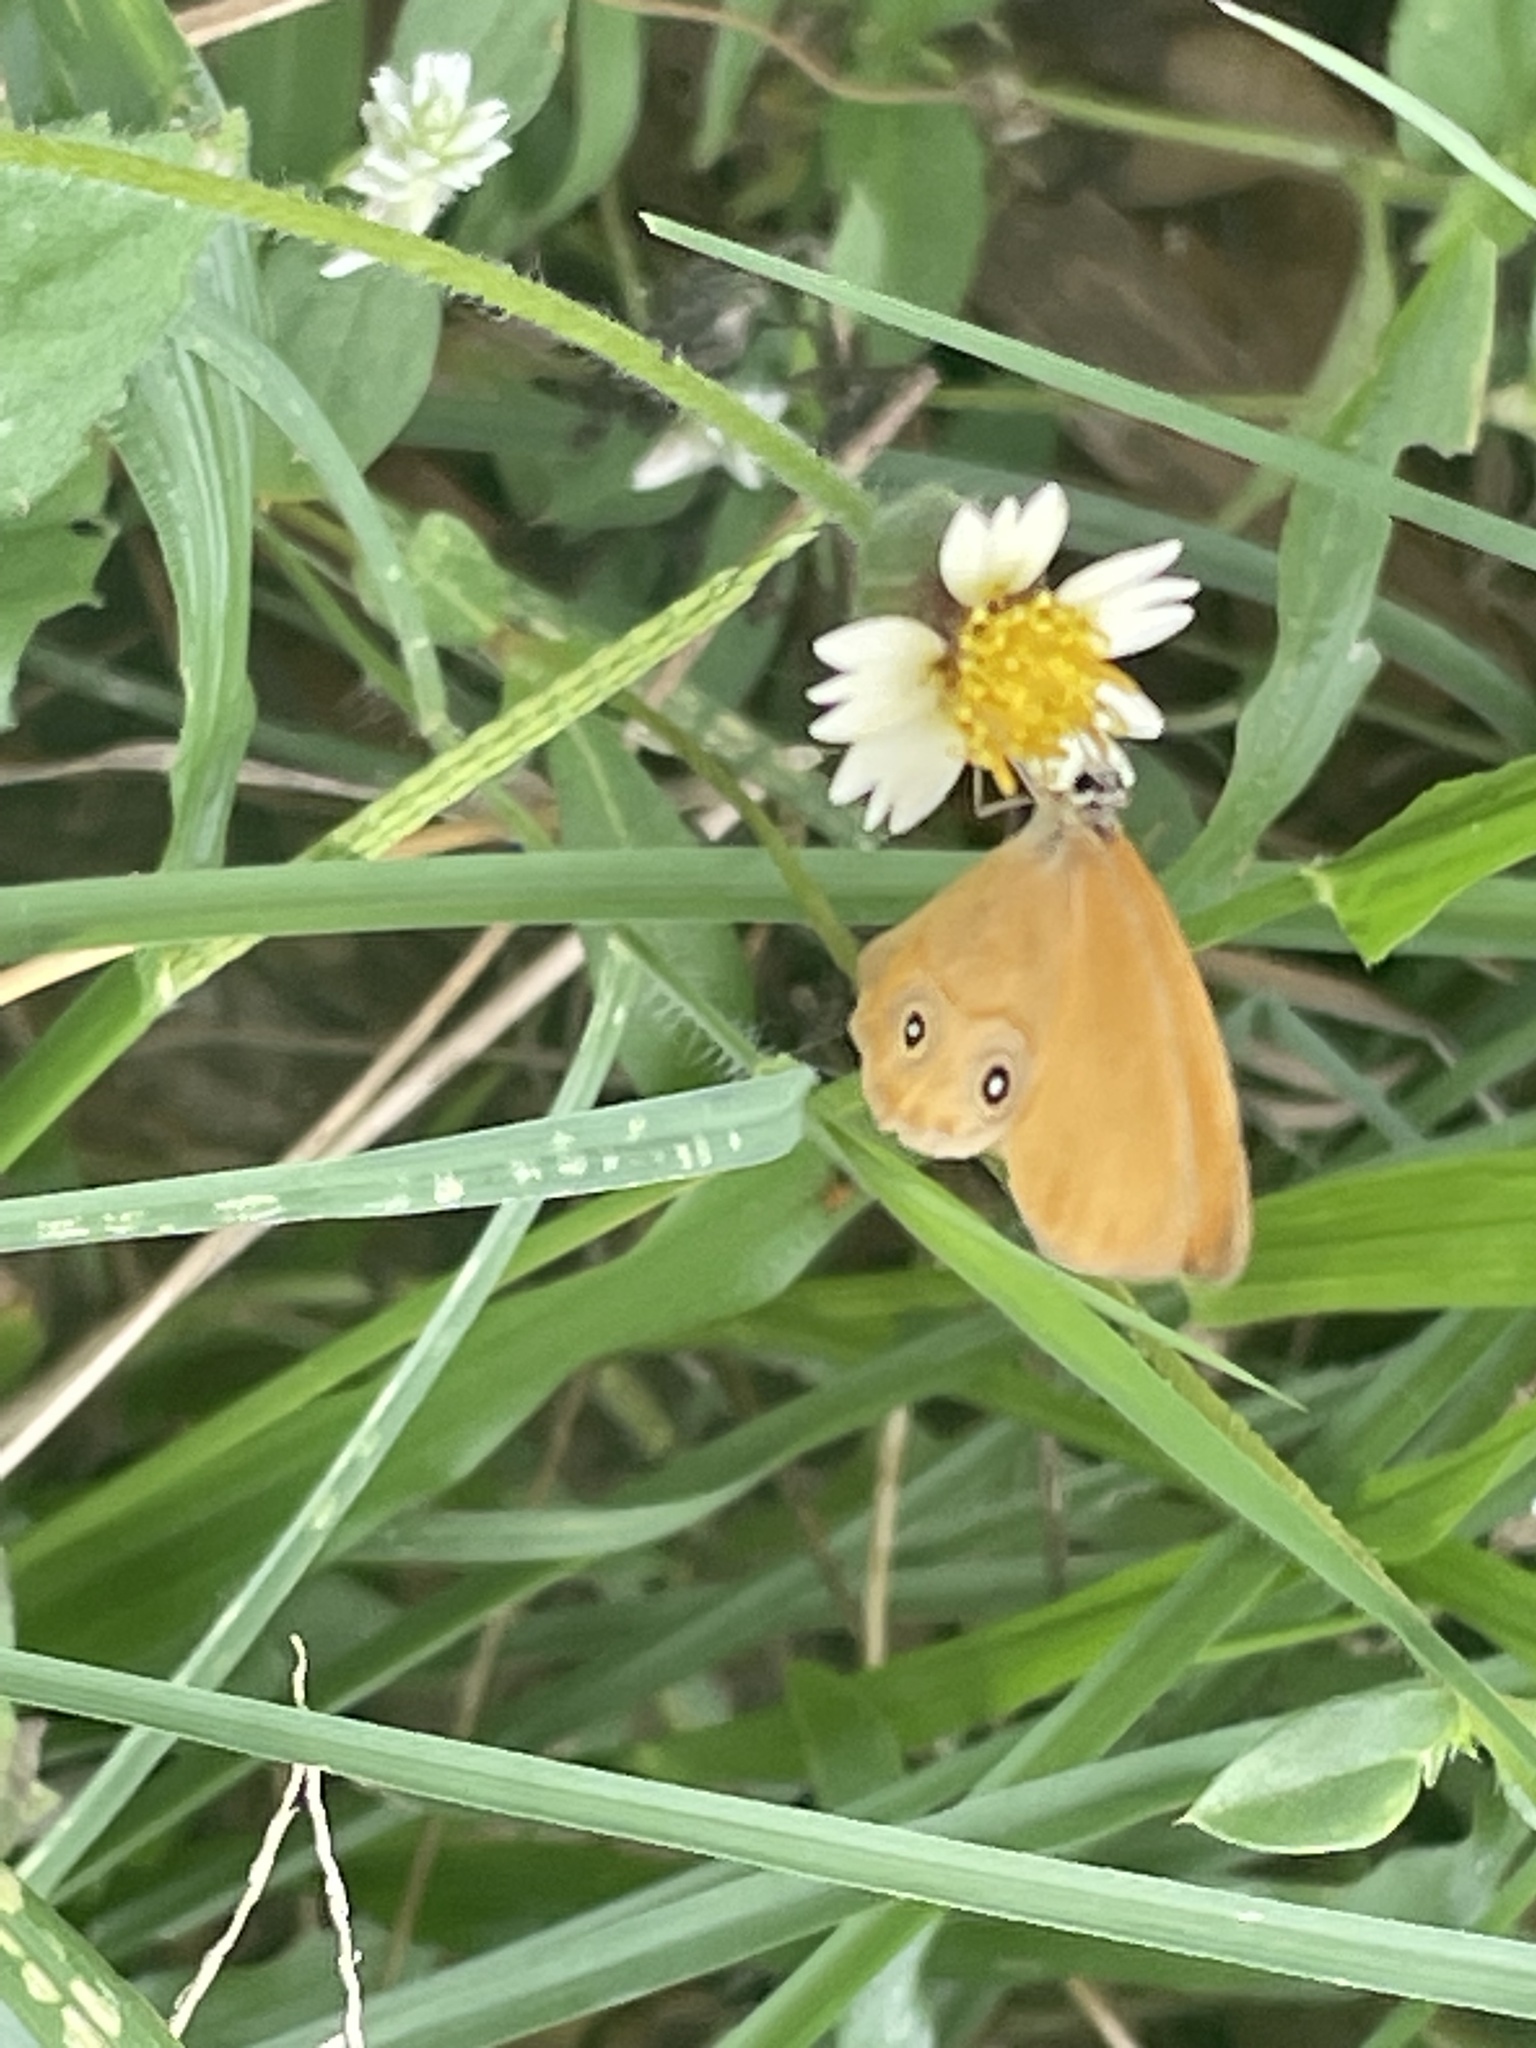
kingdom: Animalia
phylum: Arthropoda
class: Insecta
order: Lepidoptera
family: Nymphalidae
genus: Hypocysta
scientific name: Hypocysta adiante
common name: Orange ringlet
